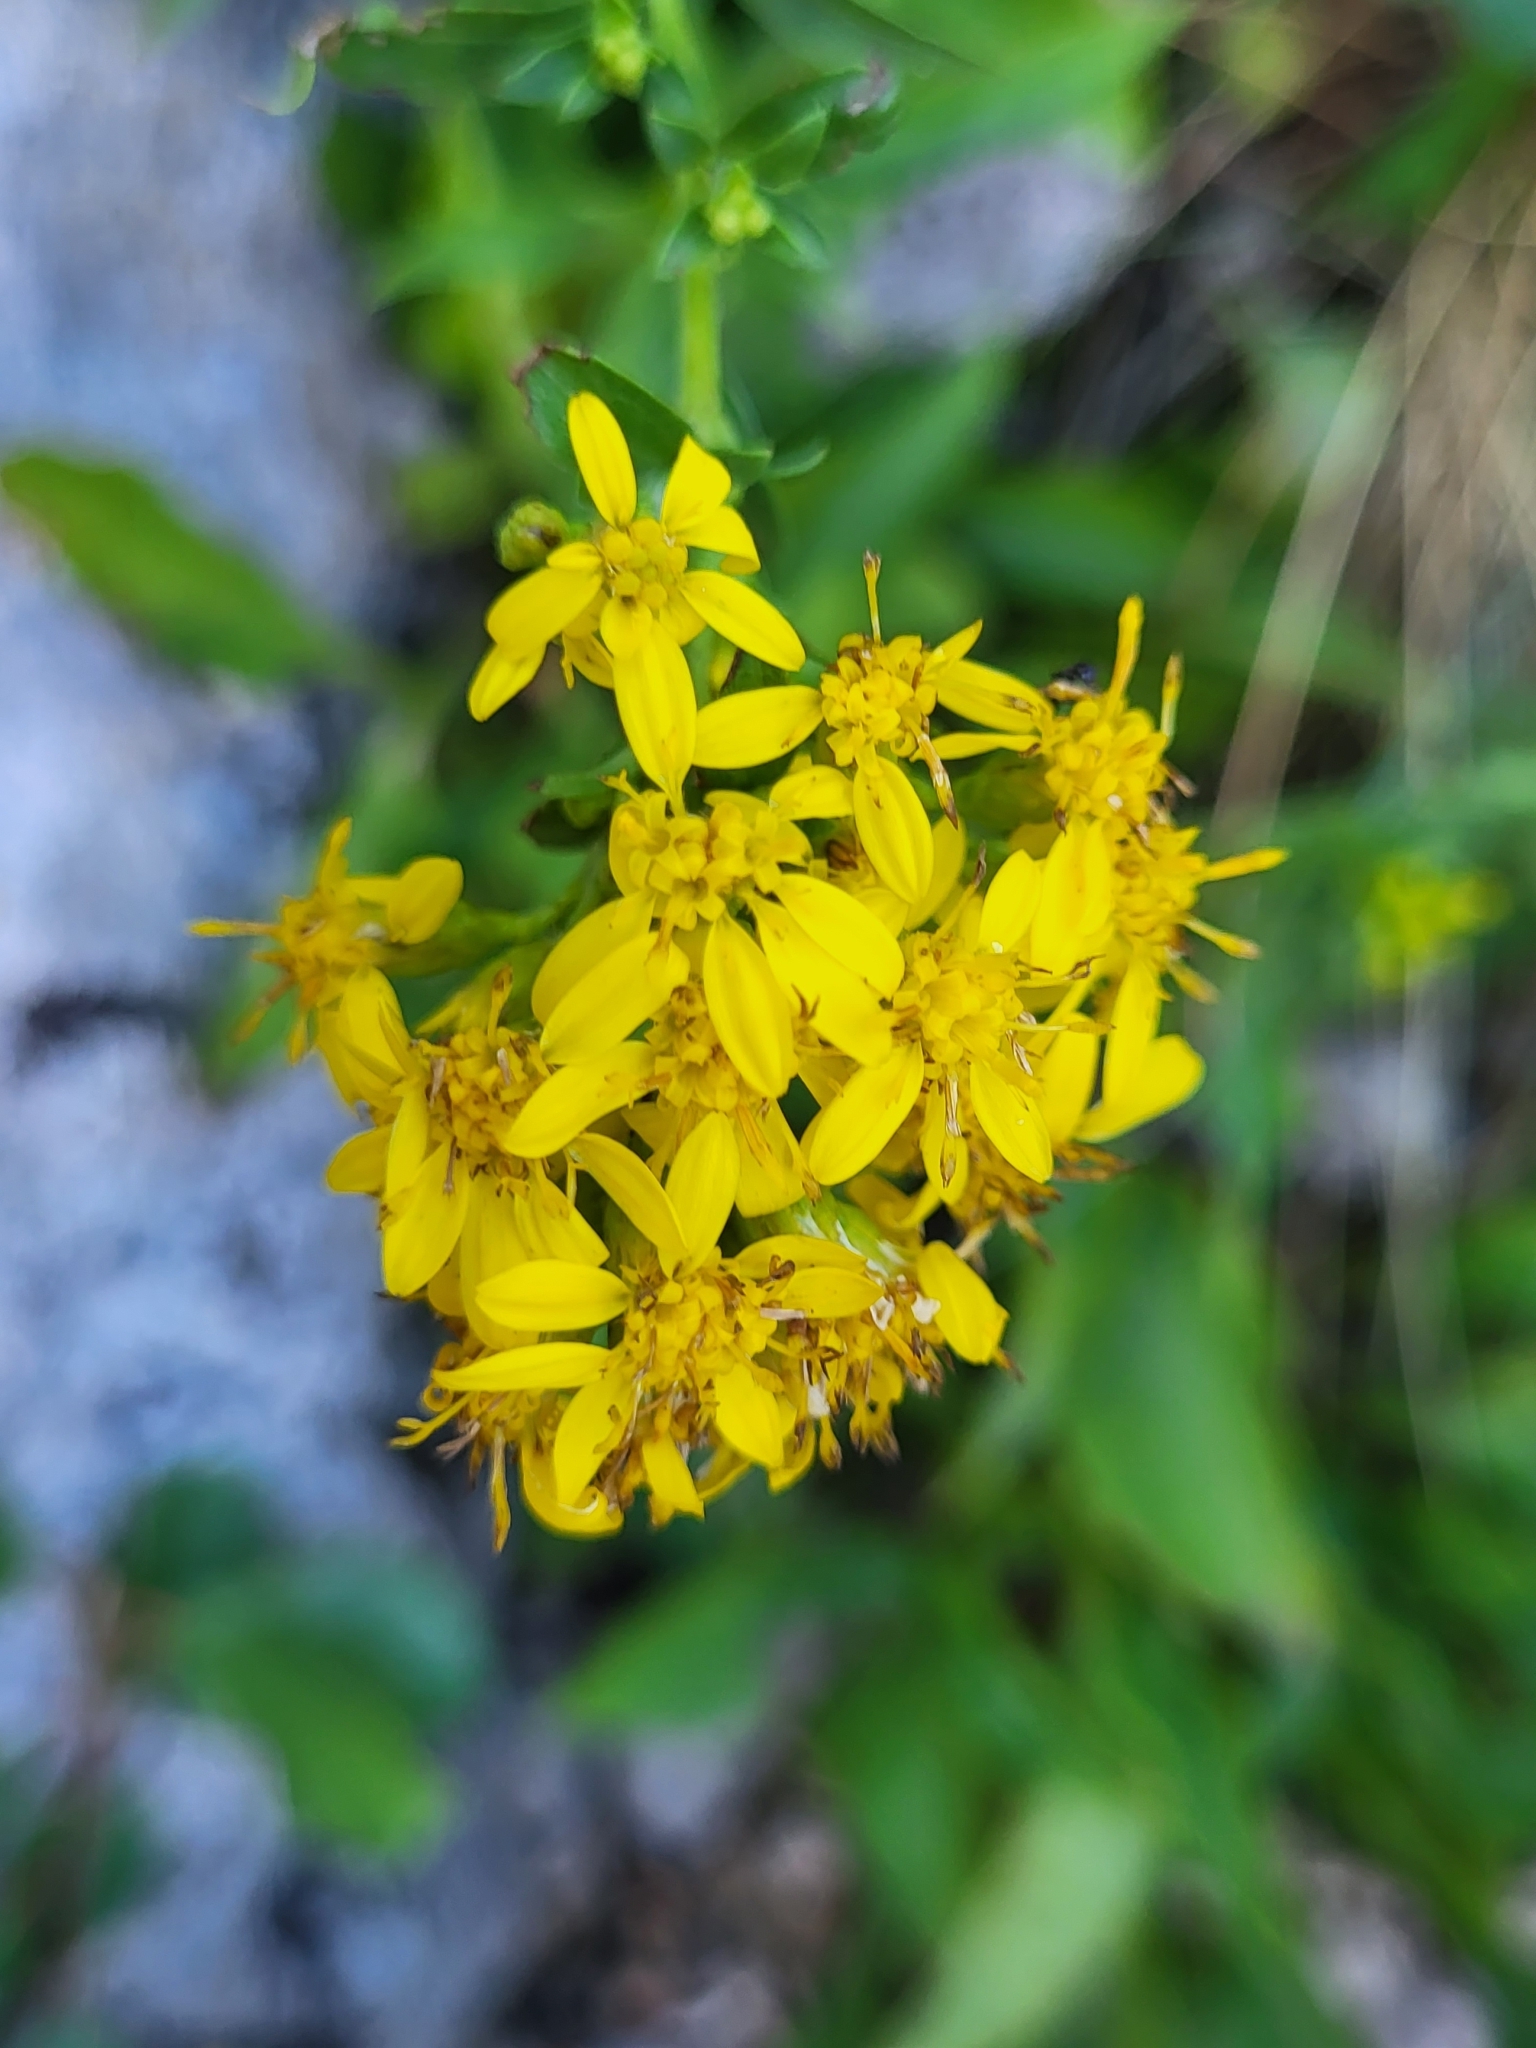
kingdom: Plantae
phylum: Tracheophyta
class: Magnoliopsida
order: Asterales
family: Asteraceae
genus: Solidago
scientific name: Solidago virgaurea
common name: Goldenrod
